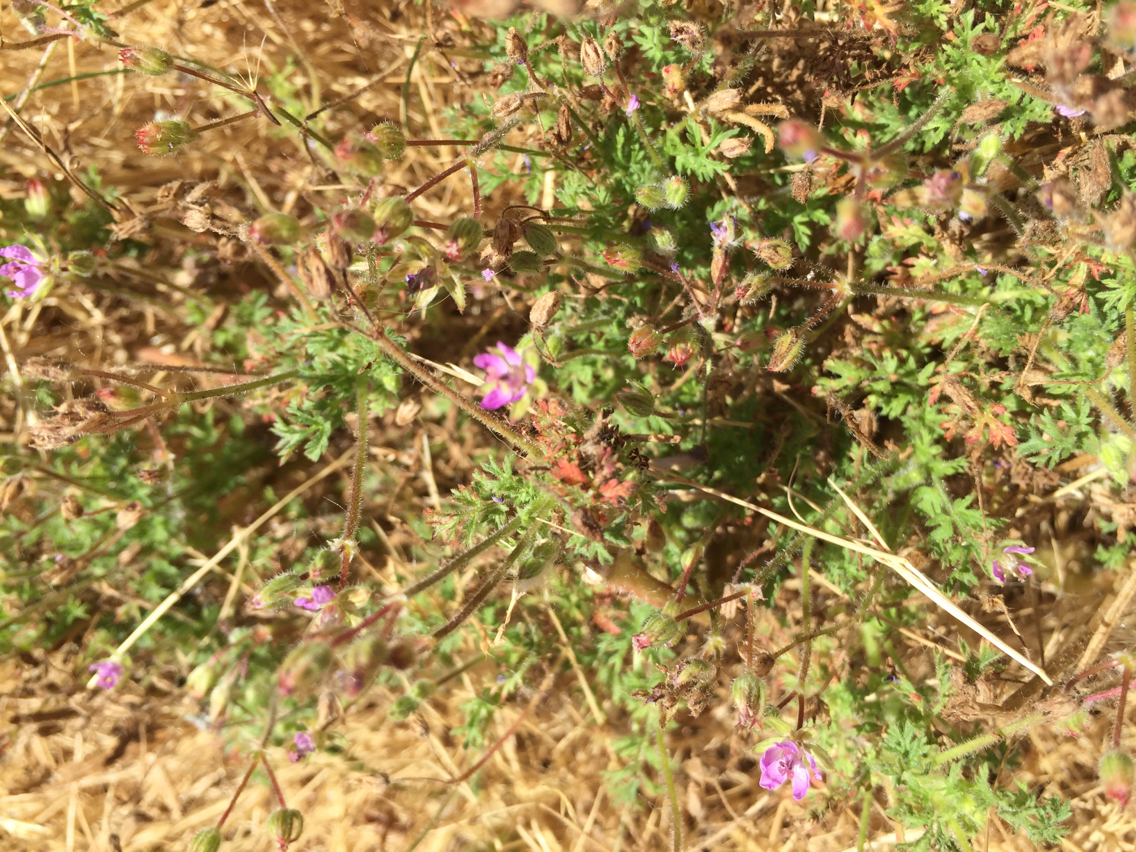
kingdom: Plantae
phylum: Tracheophyta
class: Magnoliopsida
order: Geraniales
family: Geraniaceae
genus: Erodium
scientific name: Erodium cicutarium
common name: Common stork's-bill
